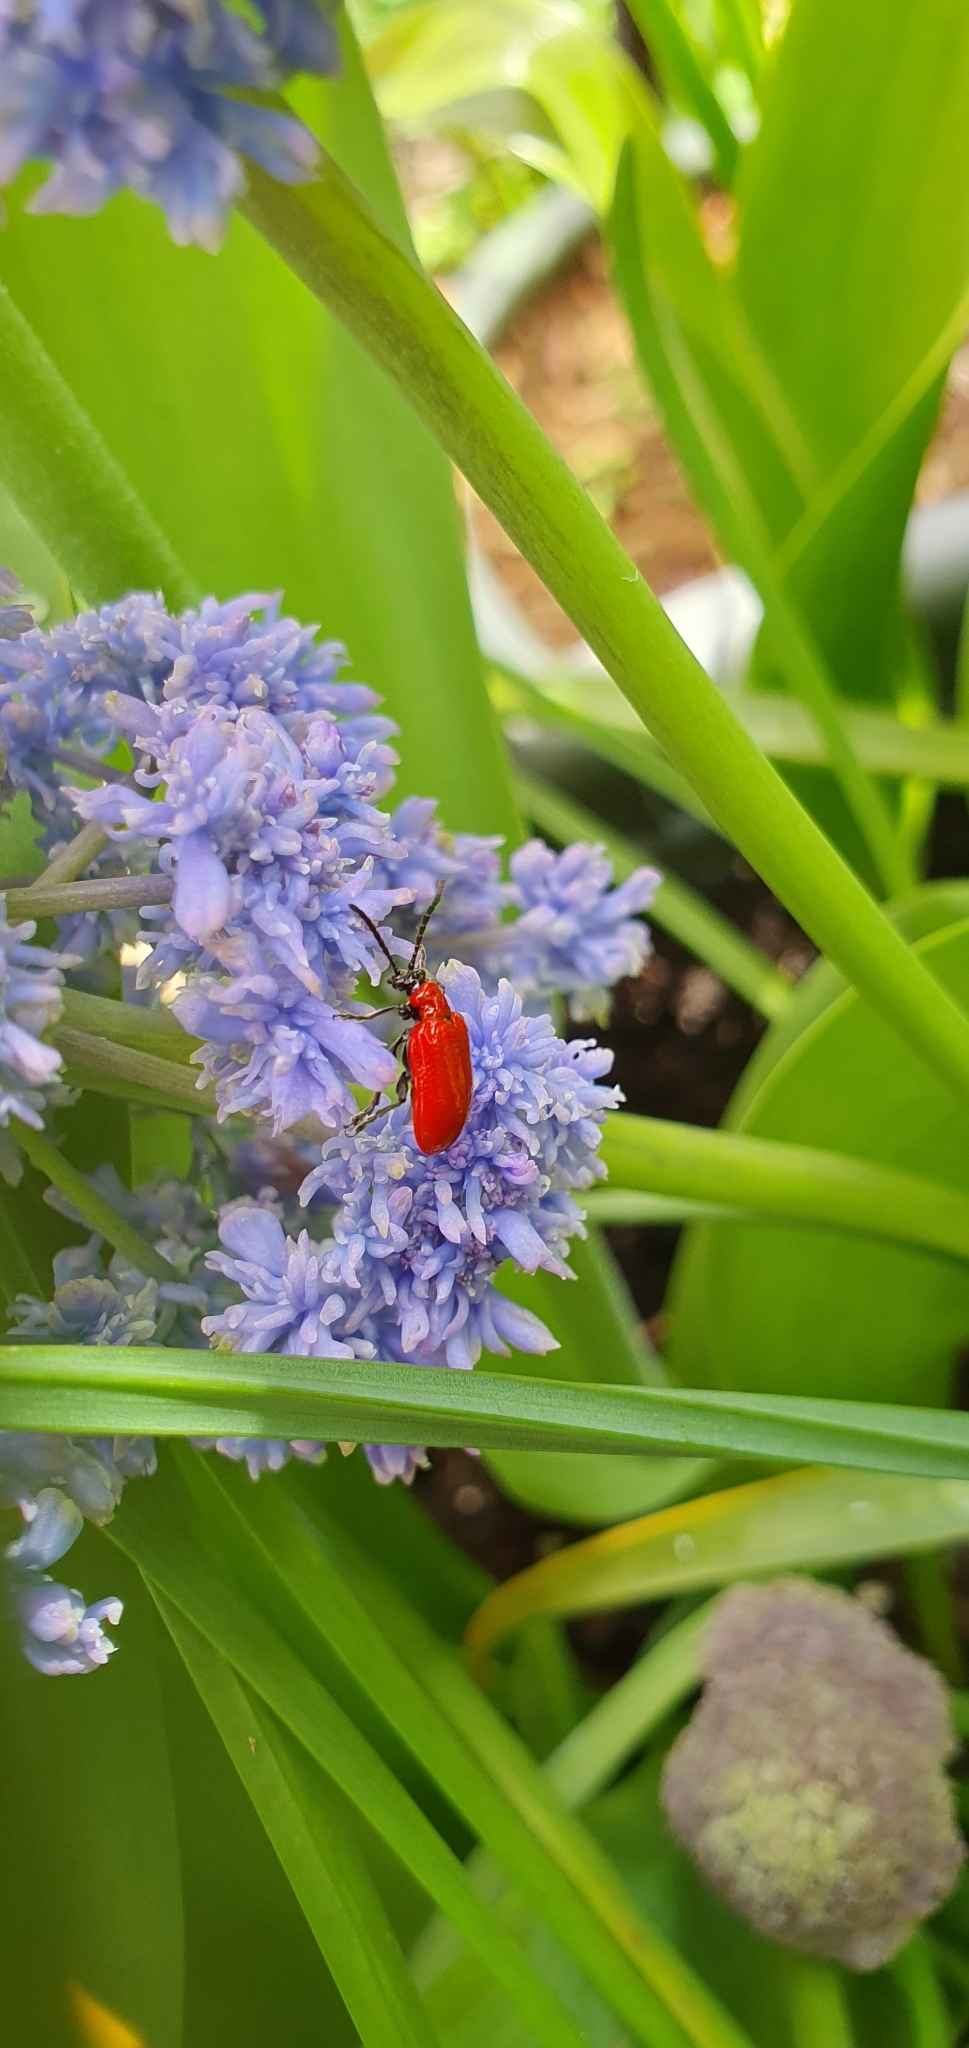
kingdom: Animalia
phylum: Arthropoda
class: Insecta
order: Coleoptera
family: Chrysomelidae
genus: Lilioceris
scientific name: Lilioceris lilii
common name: Lily beetle
